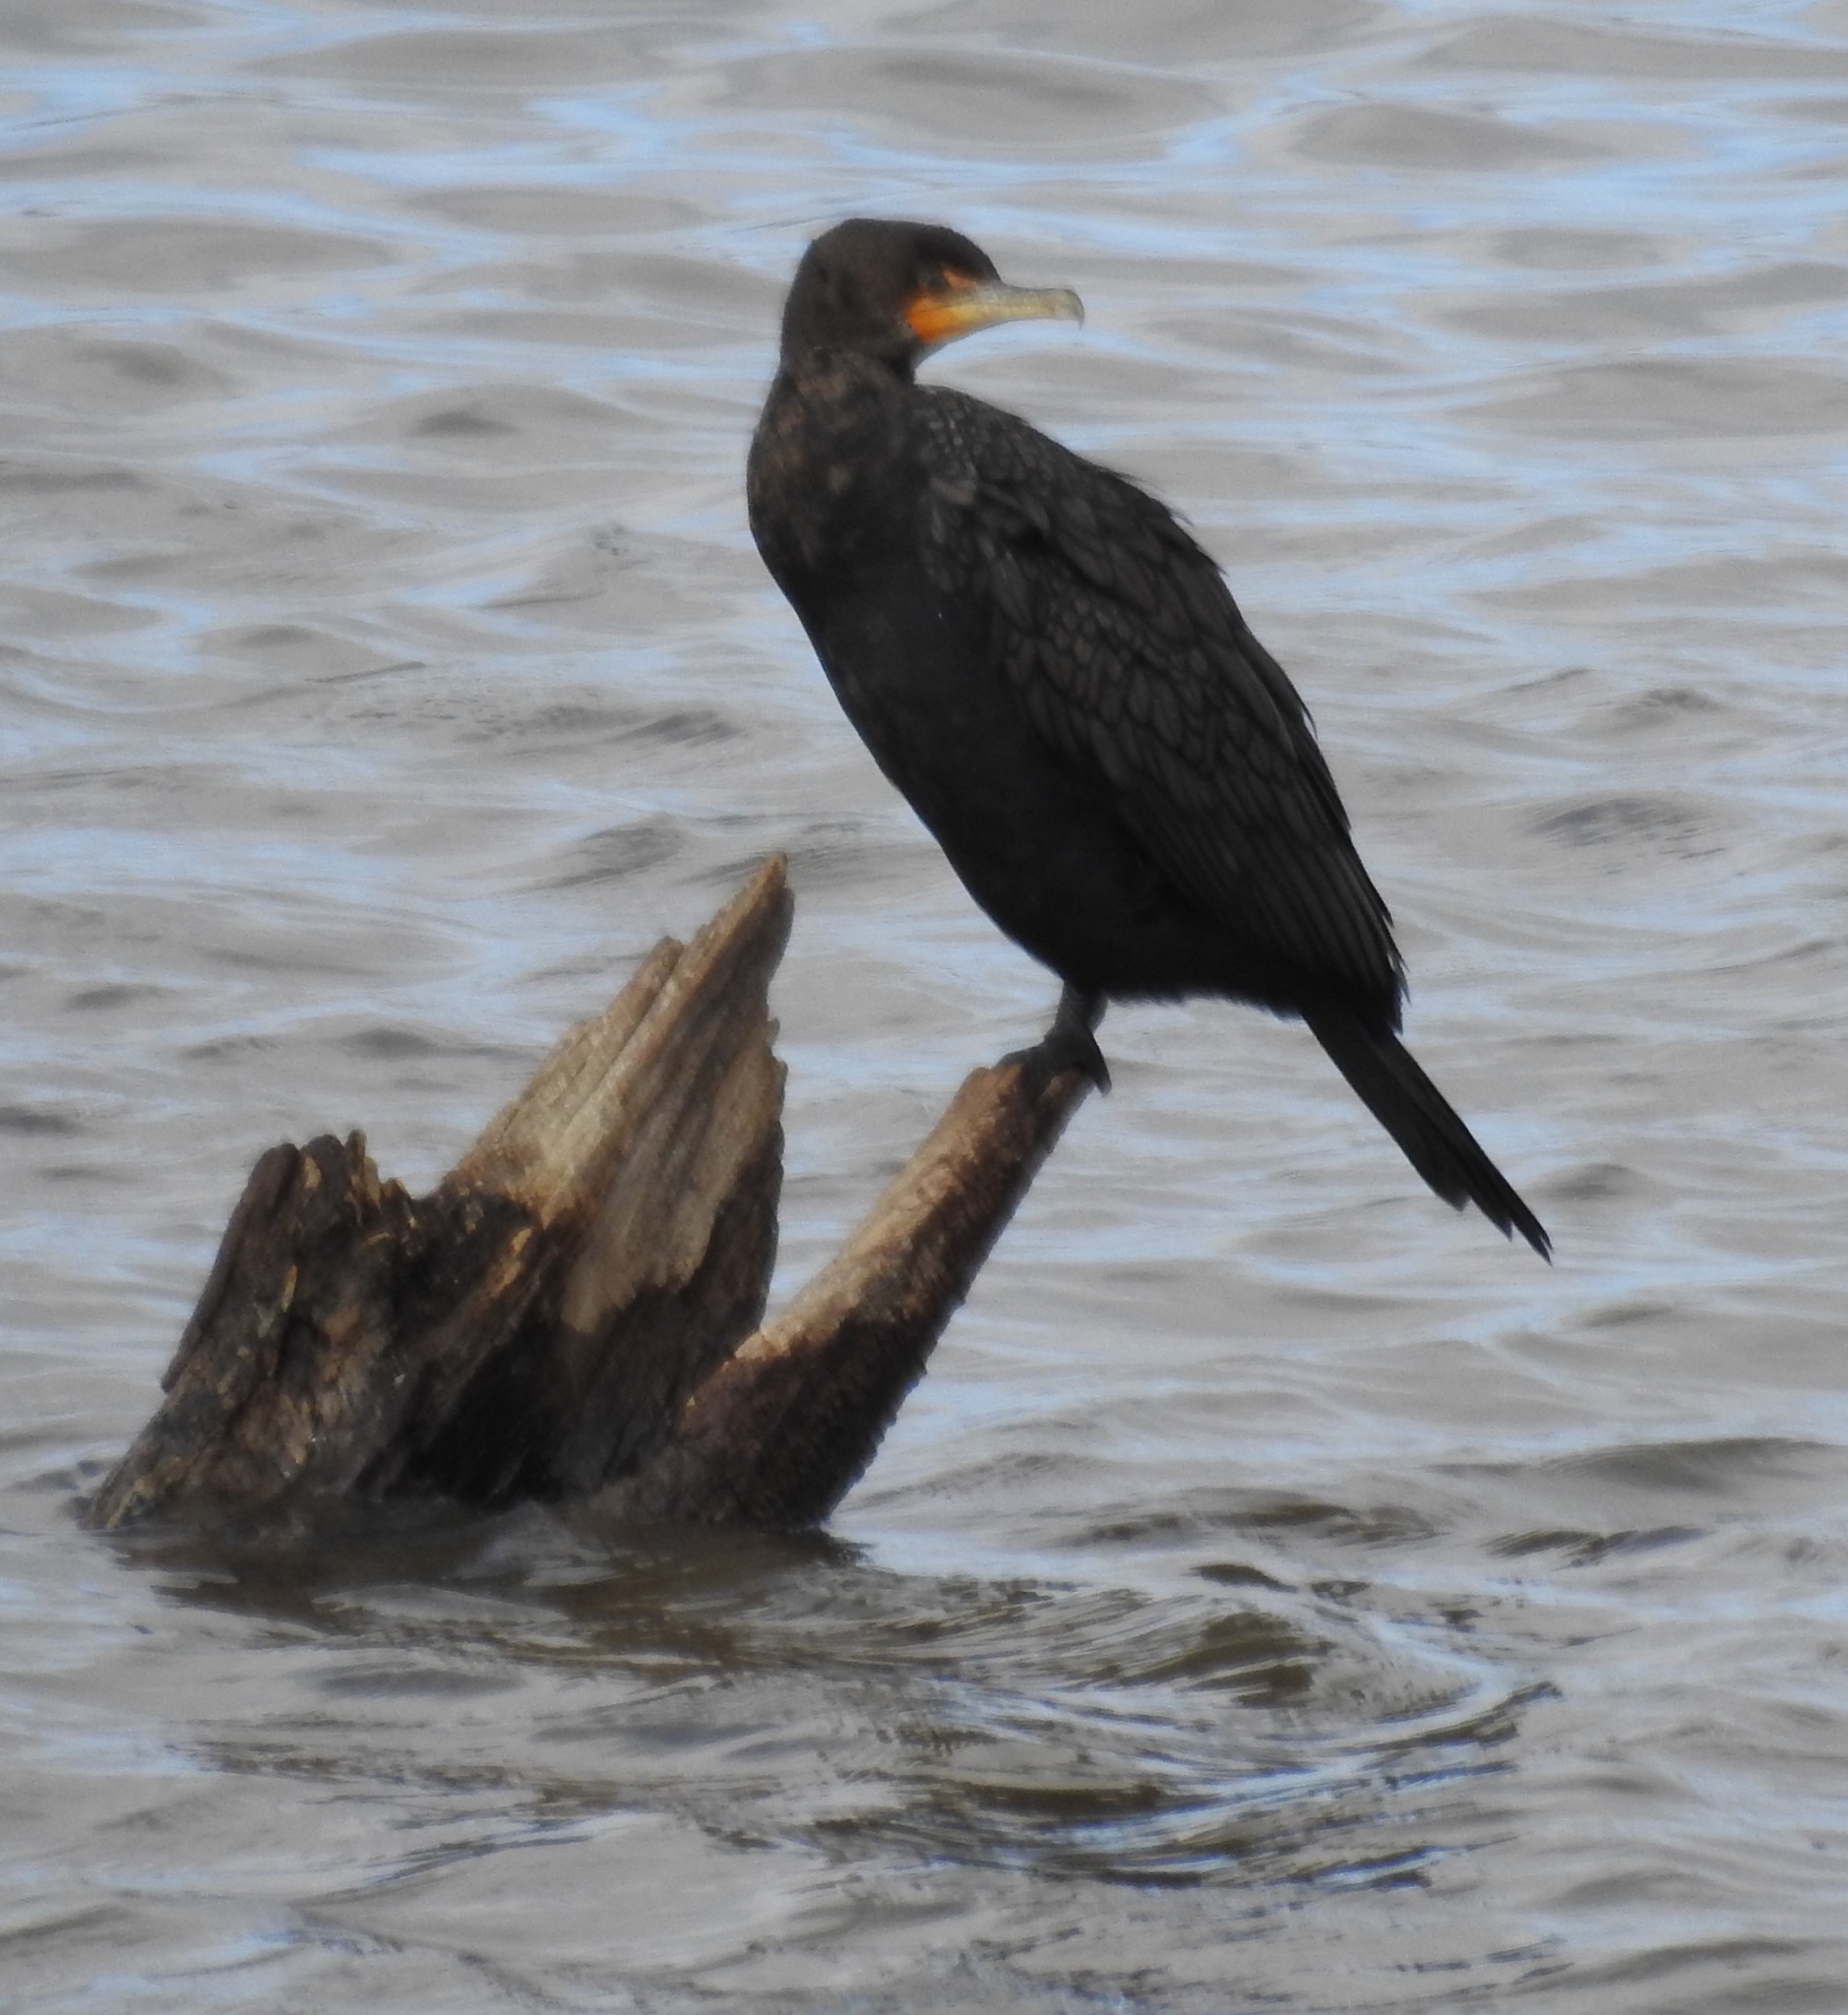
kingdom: Animalia
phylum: Chordata
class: Aves
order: Suliformes
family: Phalacrocoracidae
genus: Phalacrocorax
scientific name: Phalacrocorax auritus
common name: Double-crested cormorant
